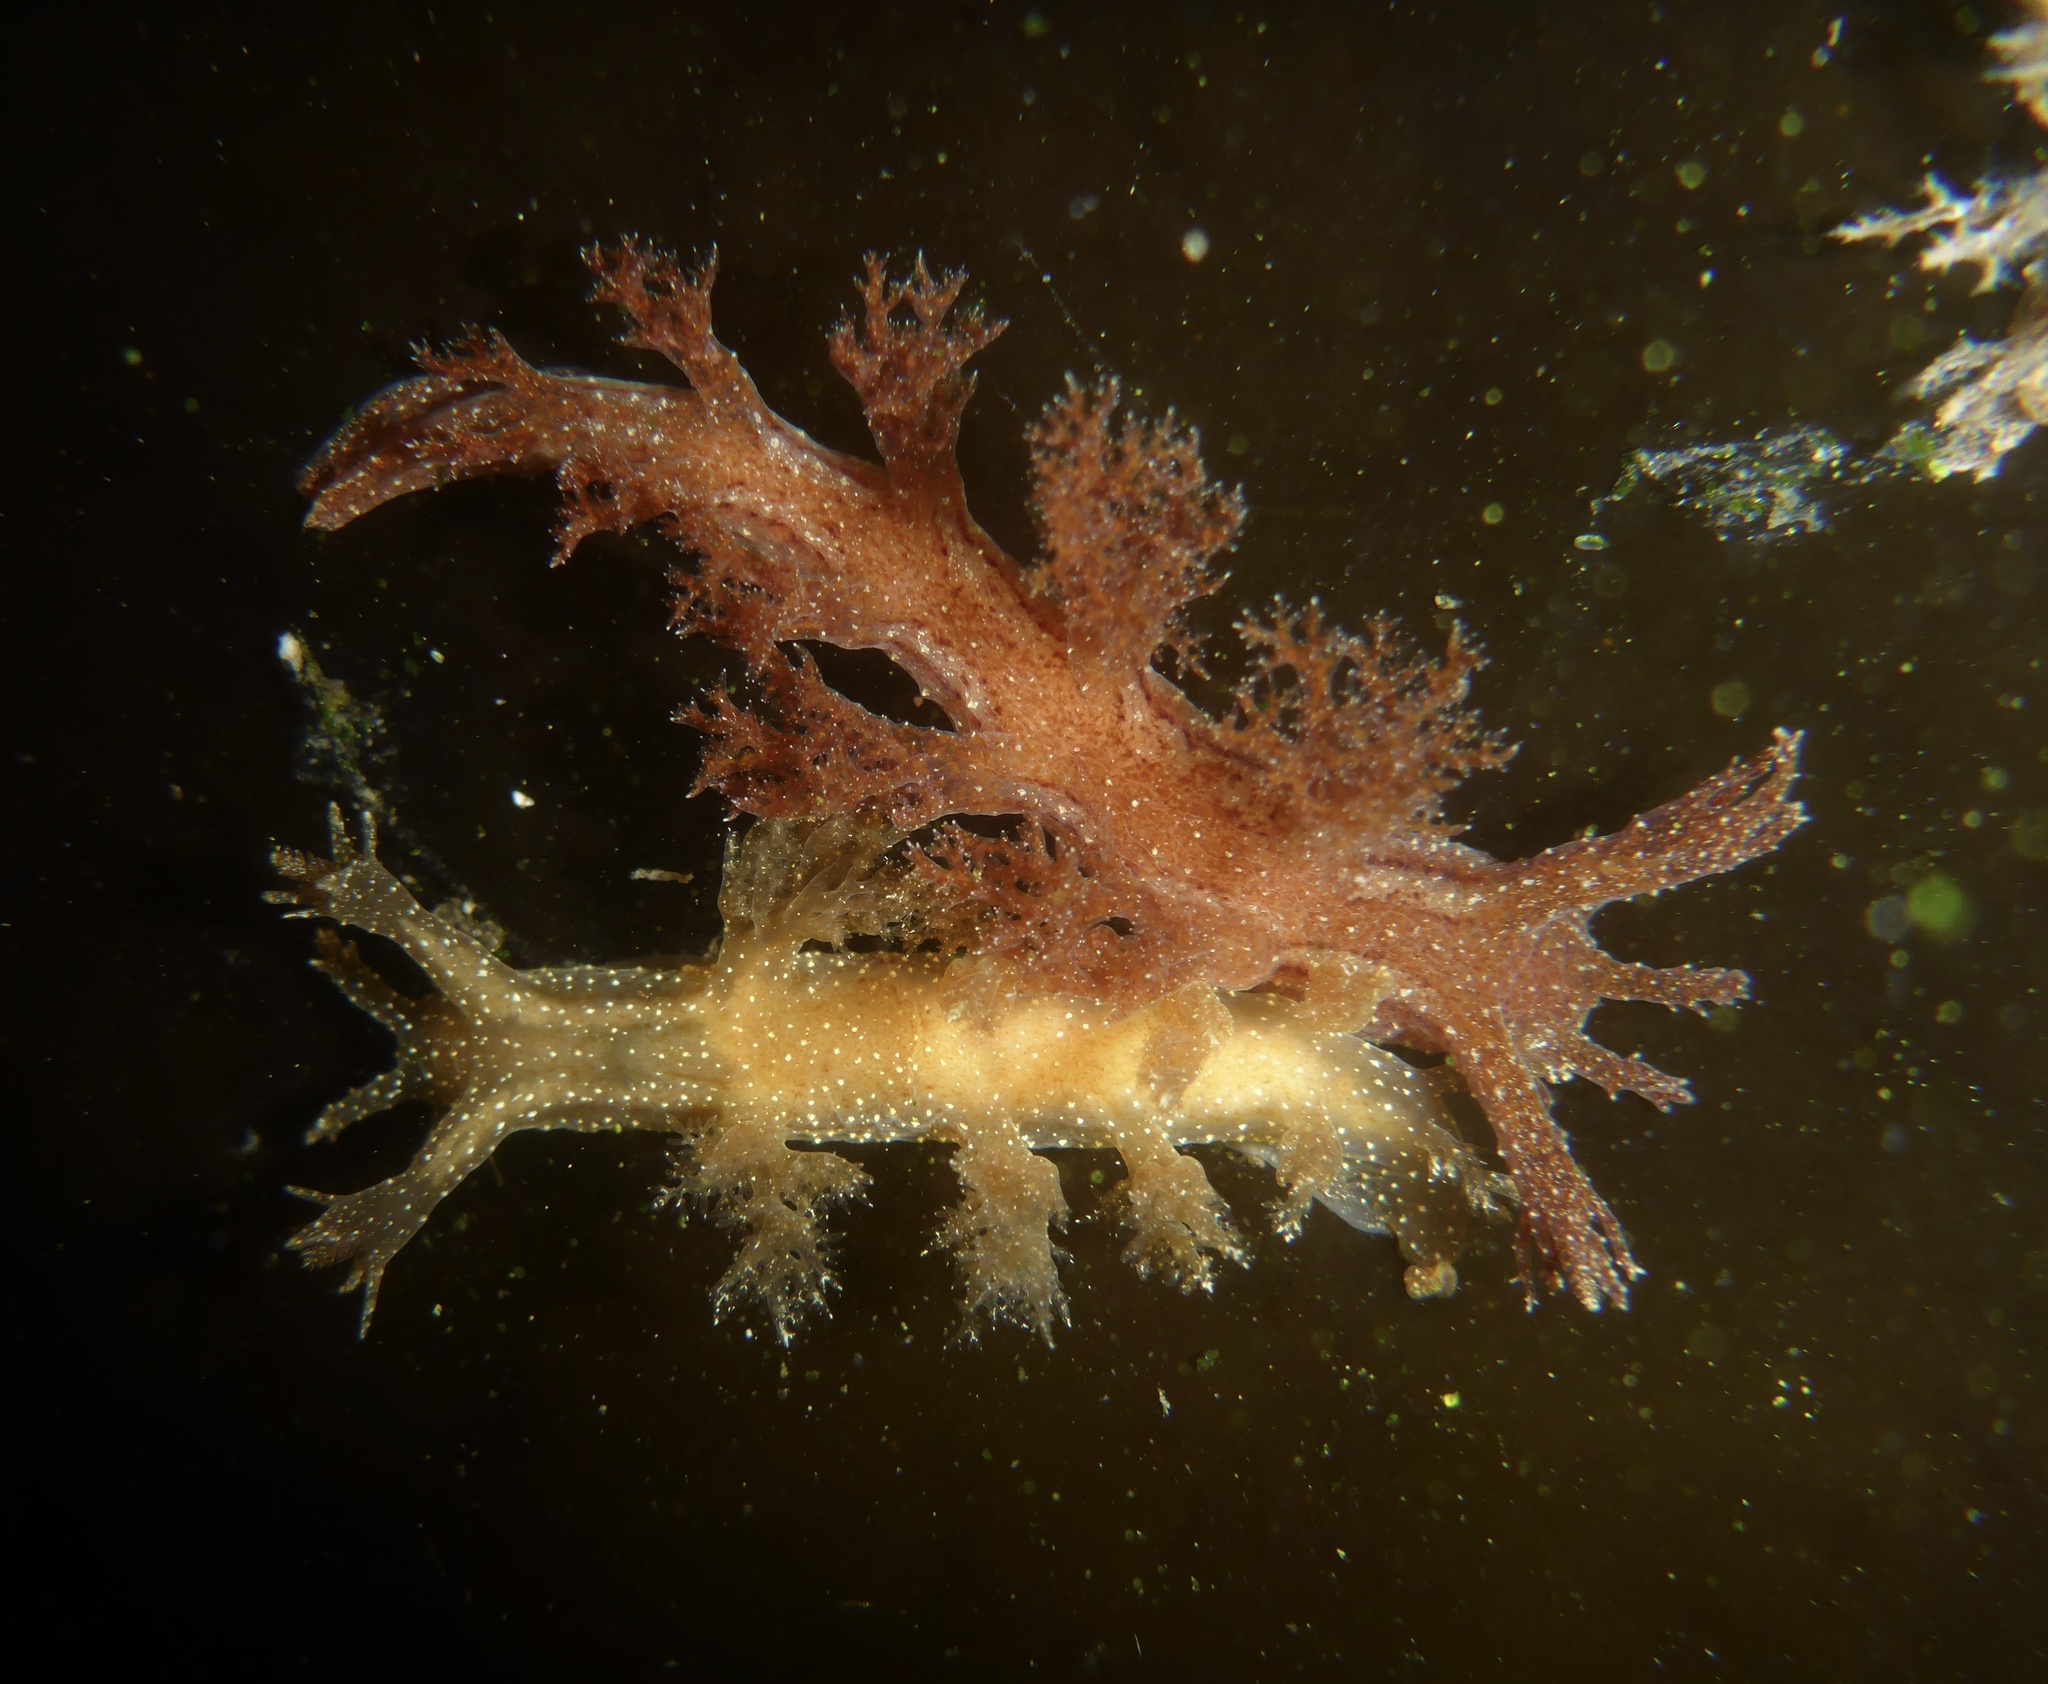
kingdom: Animalia
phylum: Mollusca
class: Gastropoda
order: Nudibranchia
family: Dendronotidae
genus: Dendronotus
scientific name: Dendronotus subramosus
